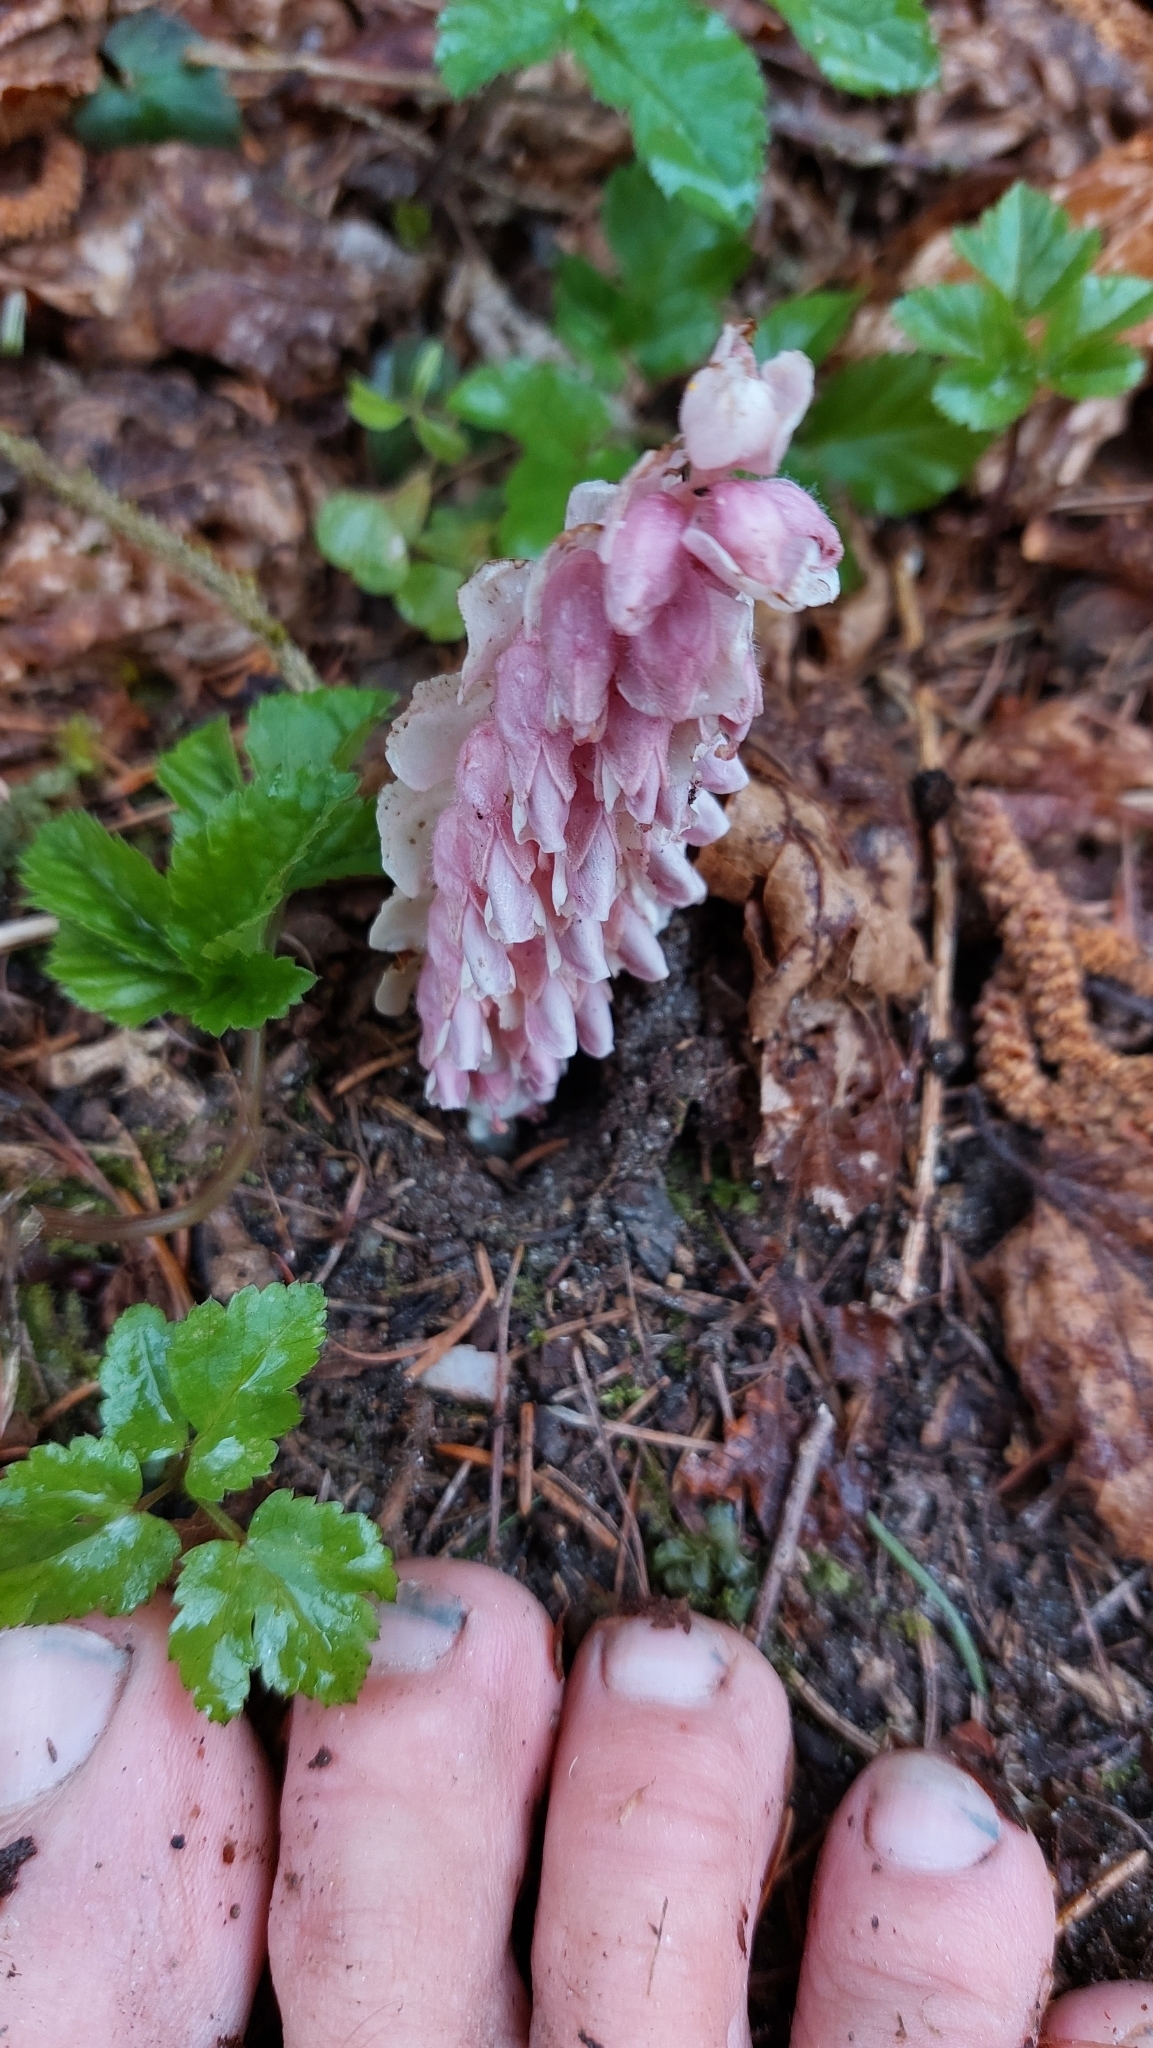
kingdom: Plantae
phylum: Tracheophyta
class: Magnoliopsida
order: Lamiales
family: Orobanchaceae
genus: Lathraea
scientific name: Lathraea squamaria
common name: Toothwort
